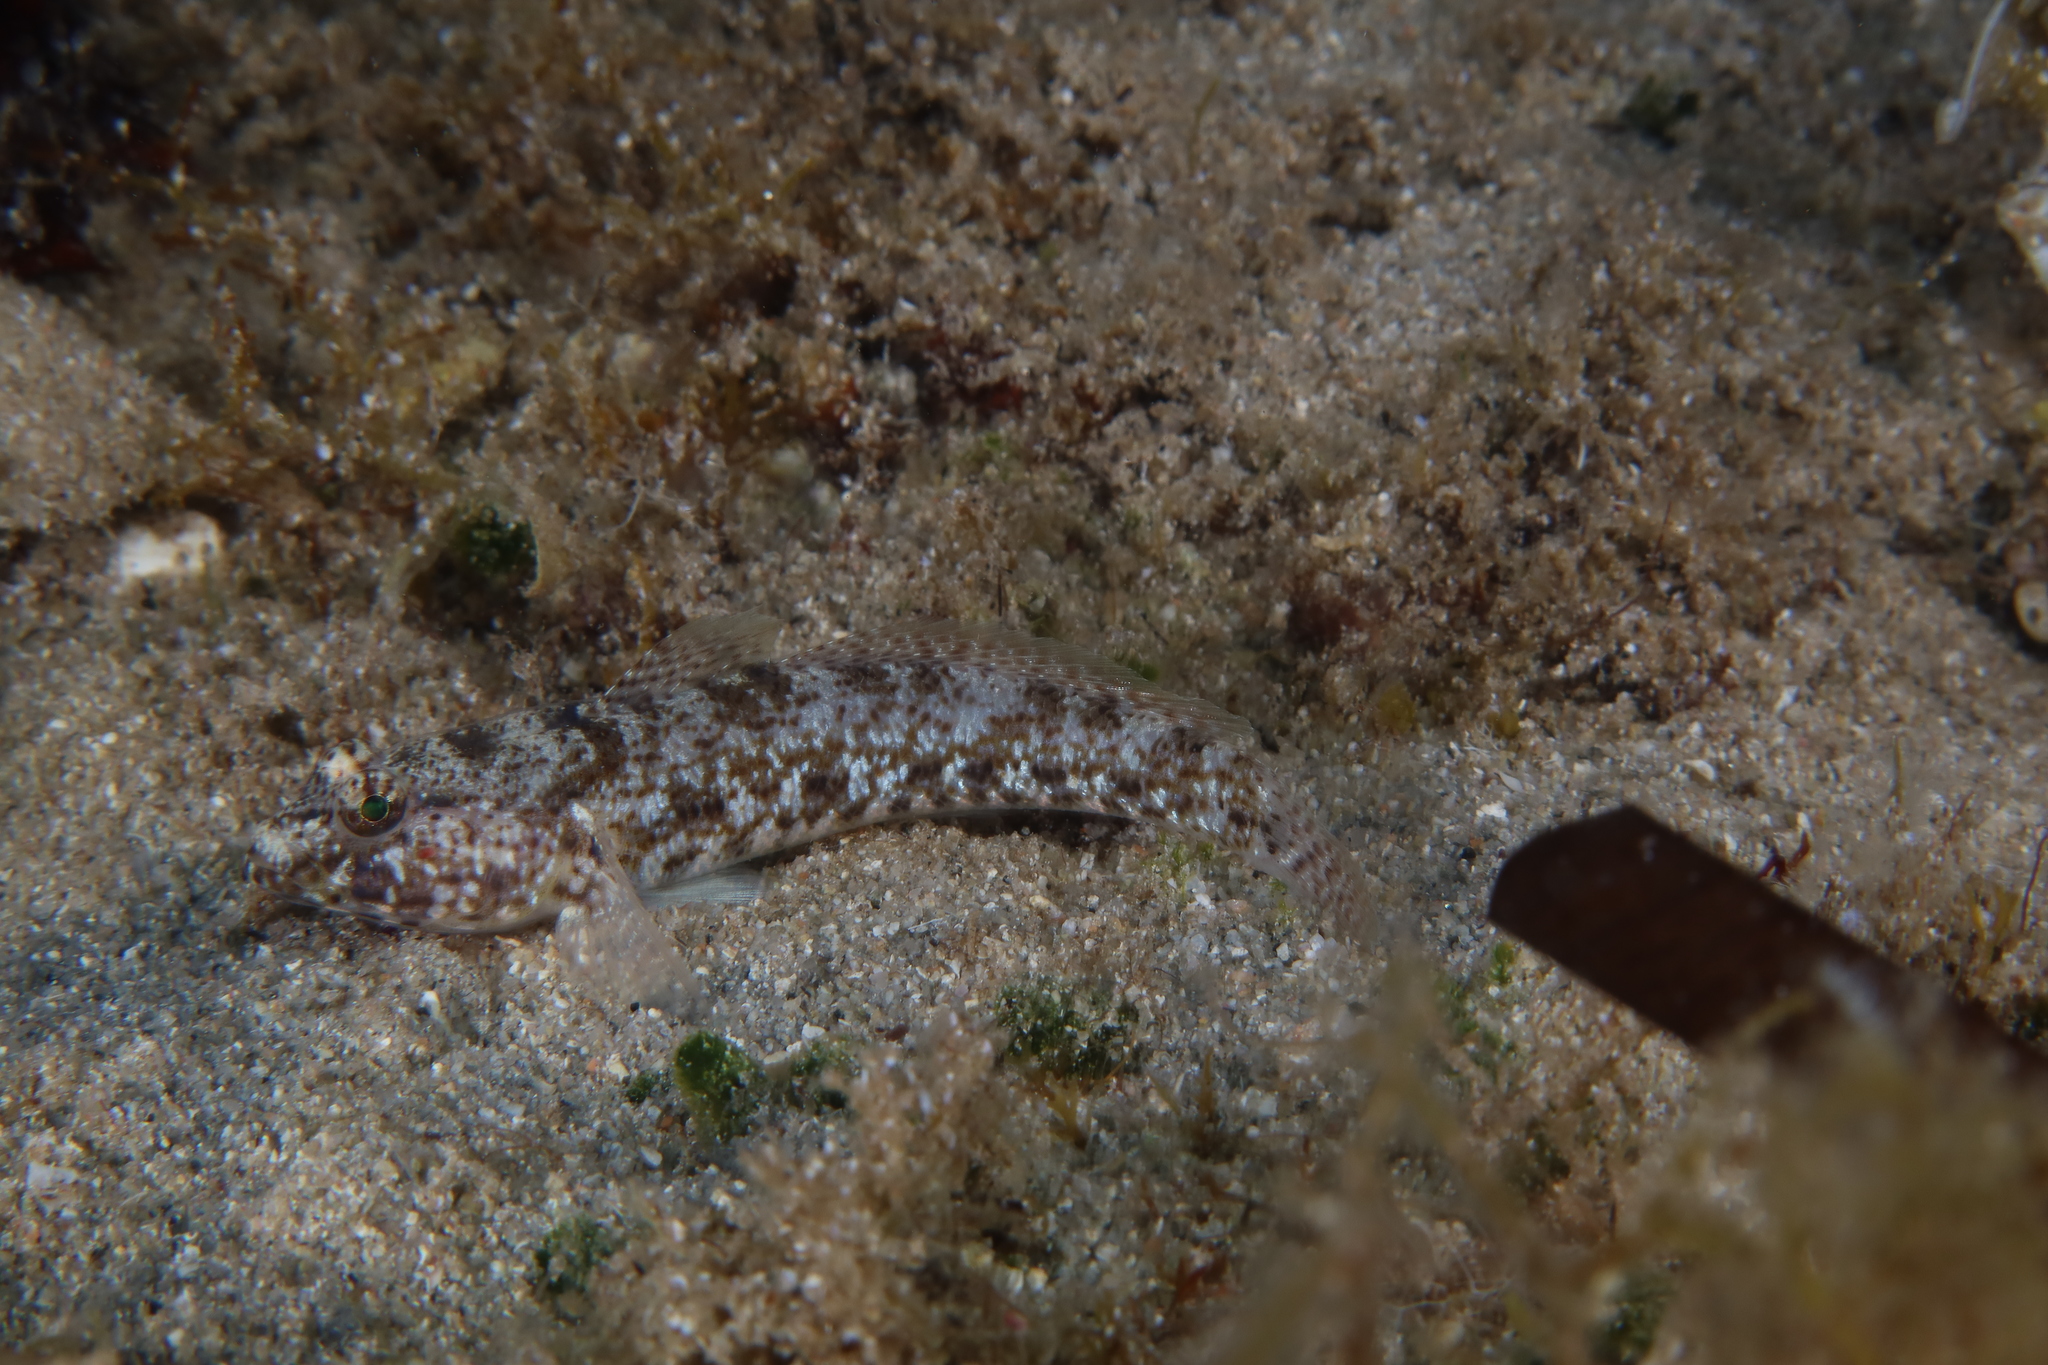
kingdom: Animalia
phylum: Chordata
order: Perciformes
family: Gobiidae
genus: Gobius
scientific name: Gobius incognitus
